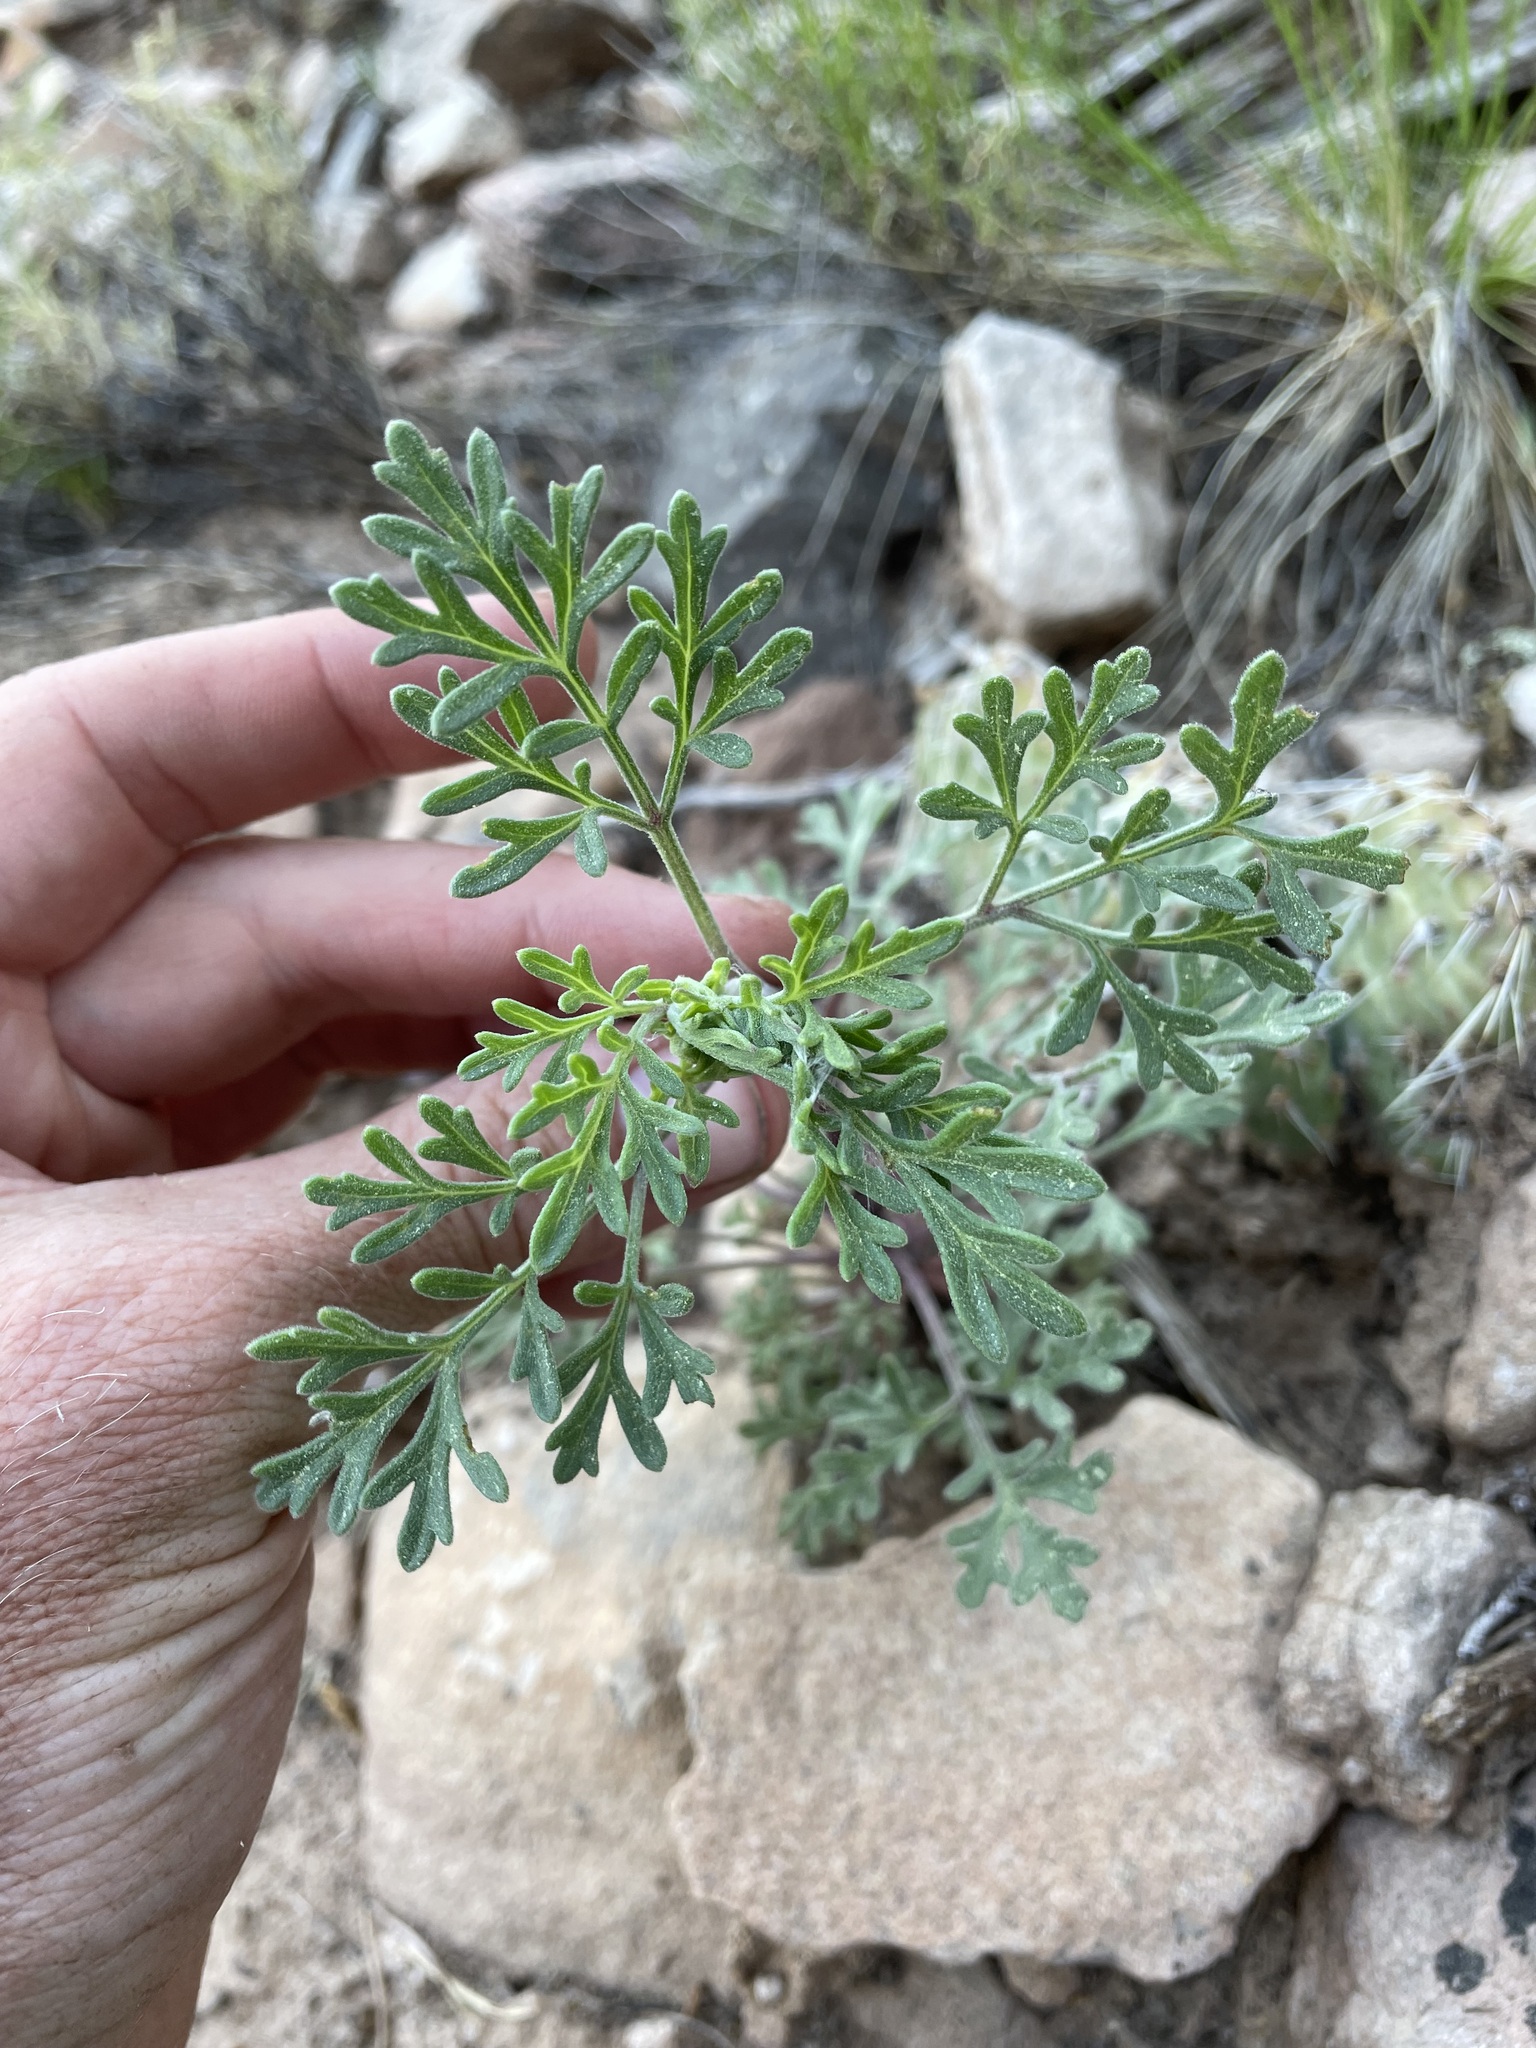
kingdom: Plantae
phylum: Tracheophyta
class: Magnoliopsida
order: Asterales
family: Asteraceae
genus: Hymenothrix
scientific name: Hymenothrix dissecta
